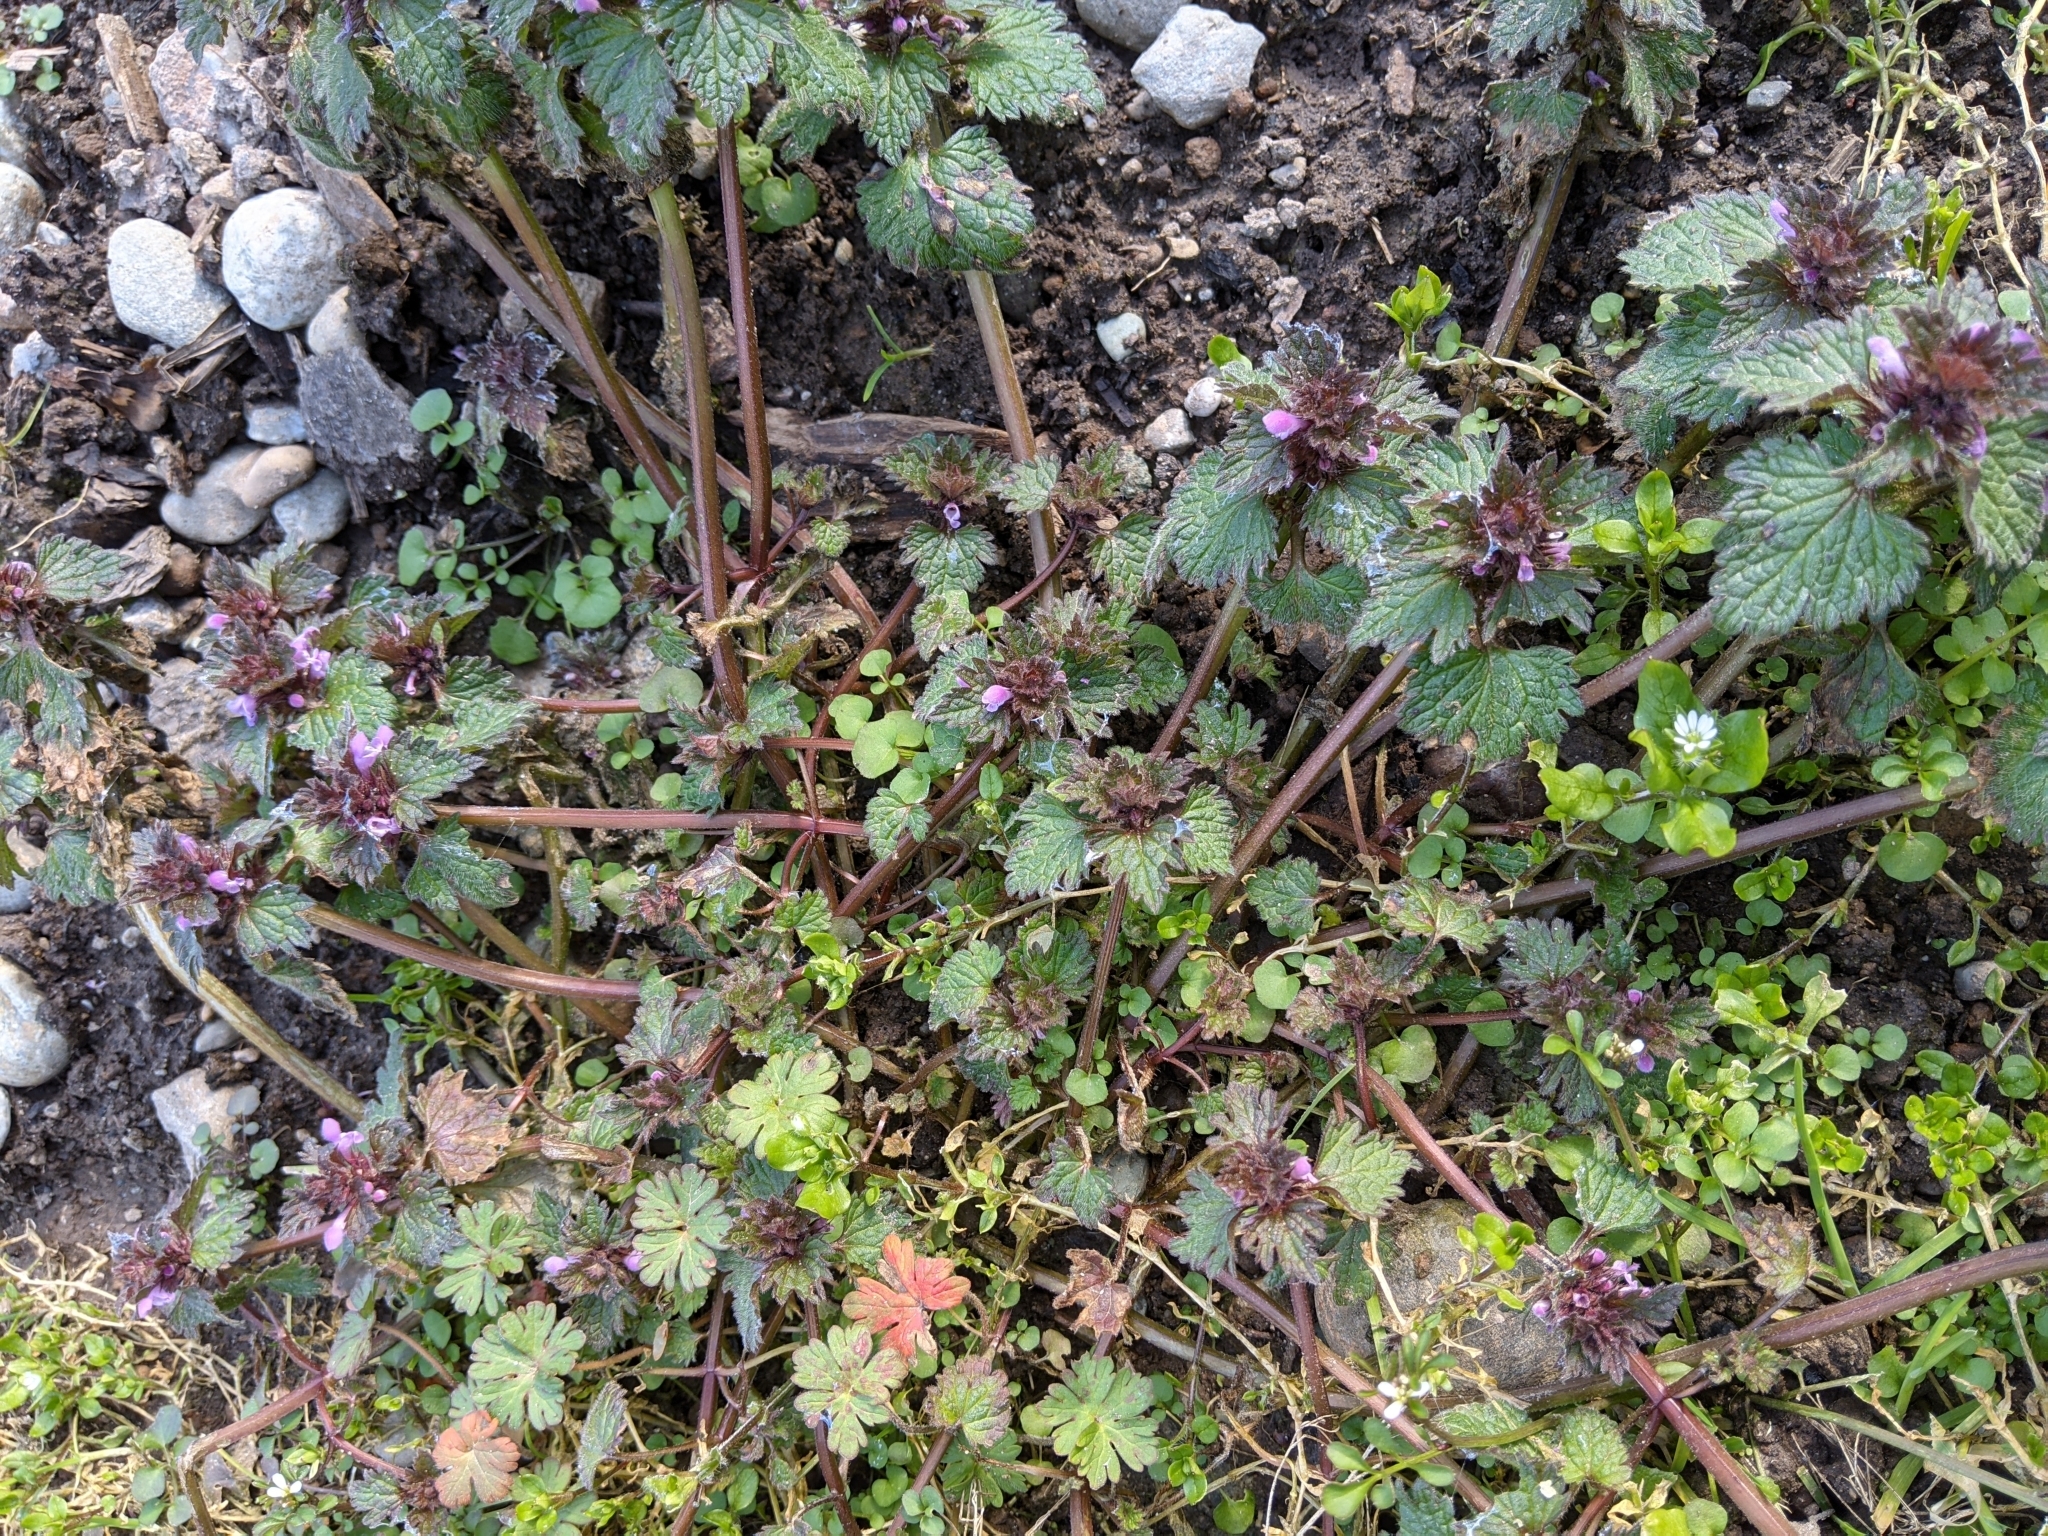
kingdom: Plantae
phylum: Tracheophyta
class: Magnoliopsida
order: Lamiales
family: Lamiaceae
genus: Lamium
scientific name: Lamium hybridum
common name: Cut-leaved dead-nettle
